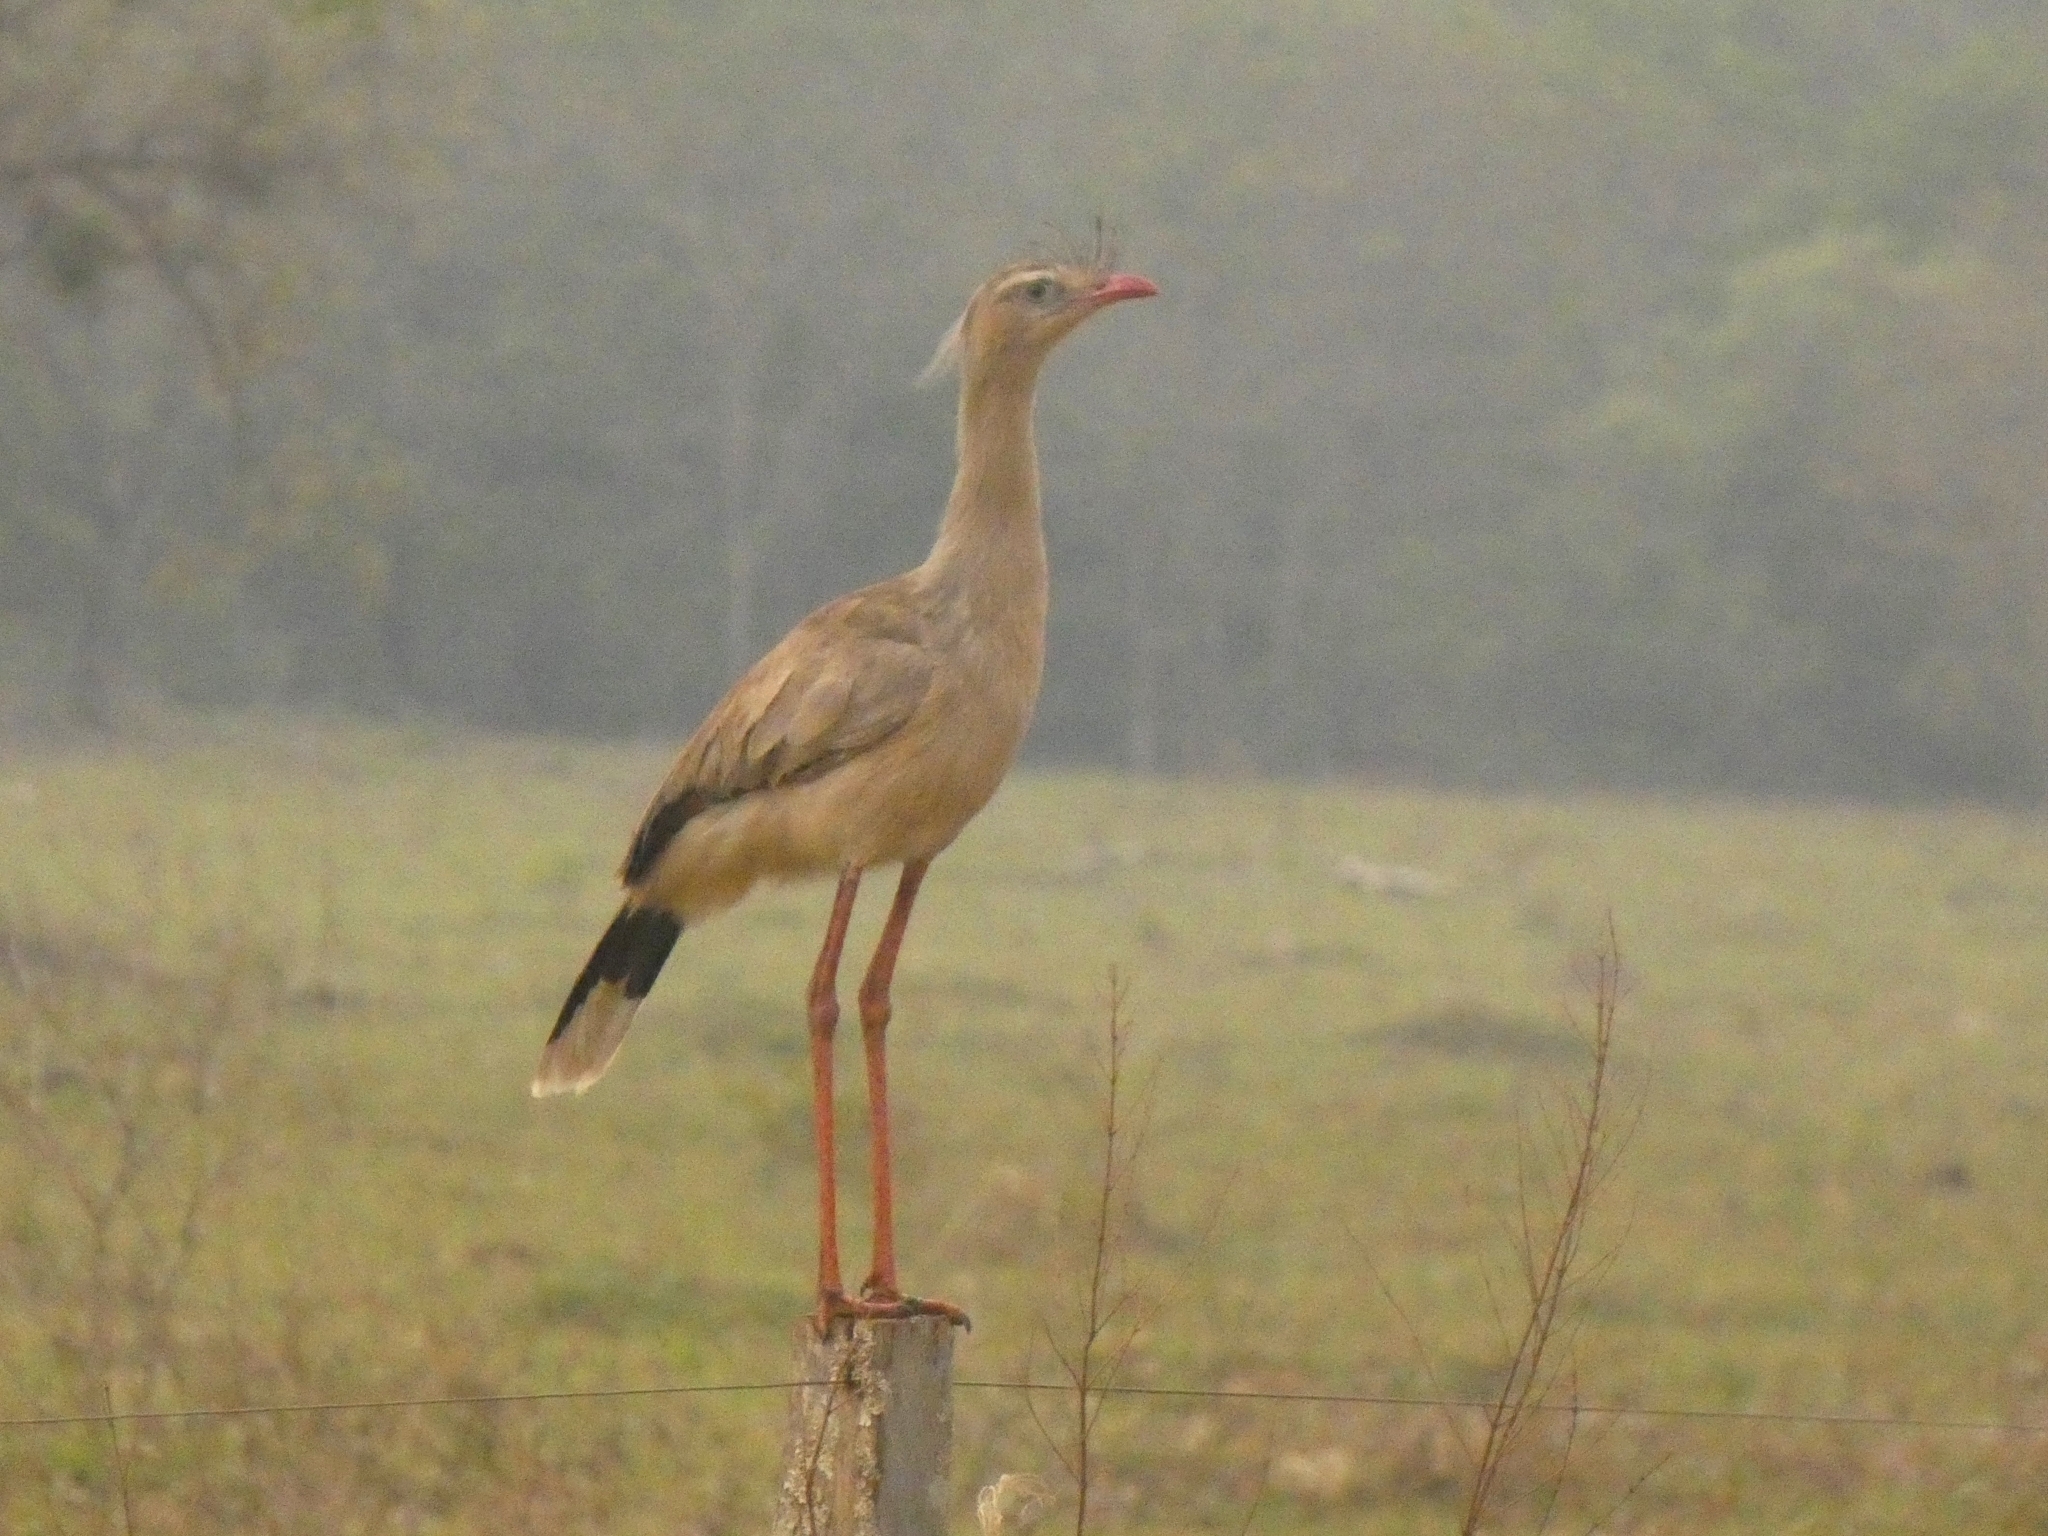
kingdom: Animalia
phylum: Chordata
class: Aves
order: Cariamiformes
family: Cariamidae
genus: Cariama
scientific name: Cariama cristata
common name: Red-legged seriema
